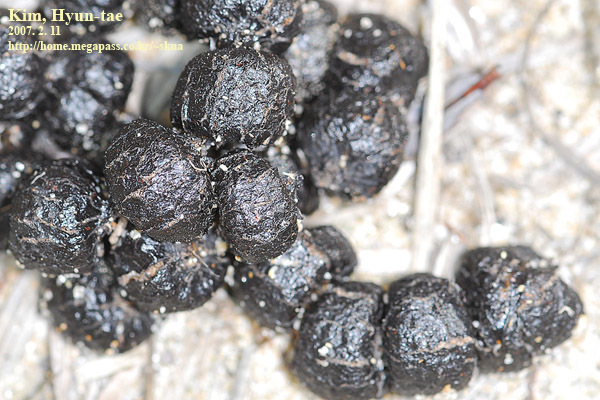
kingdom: Animalia
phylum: Chordata
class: Mammalia
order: Artiodactyla
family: Cervidae
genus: Hydropotes
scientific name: Hydropotes inermis
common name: Chinese water deer
